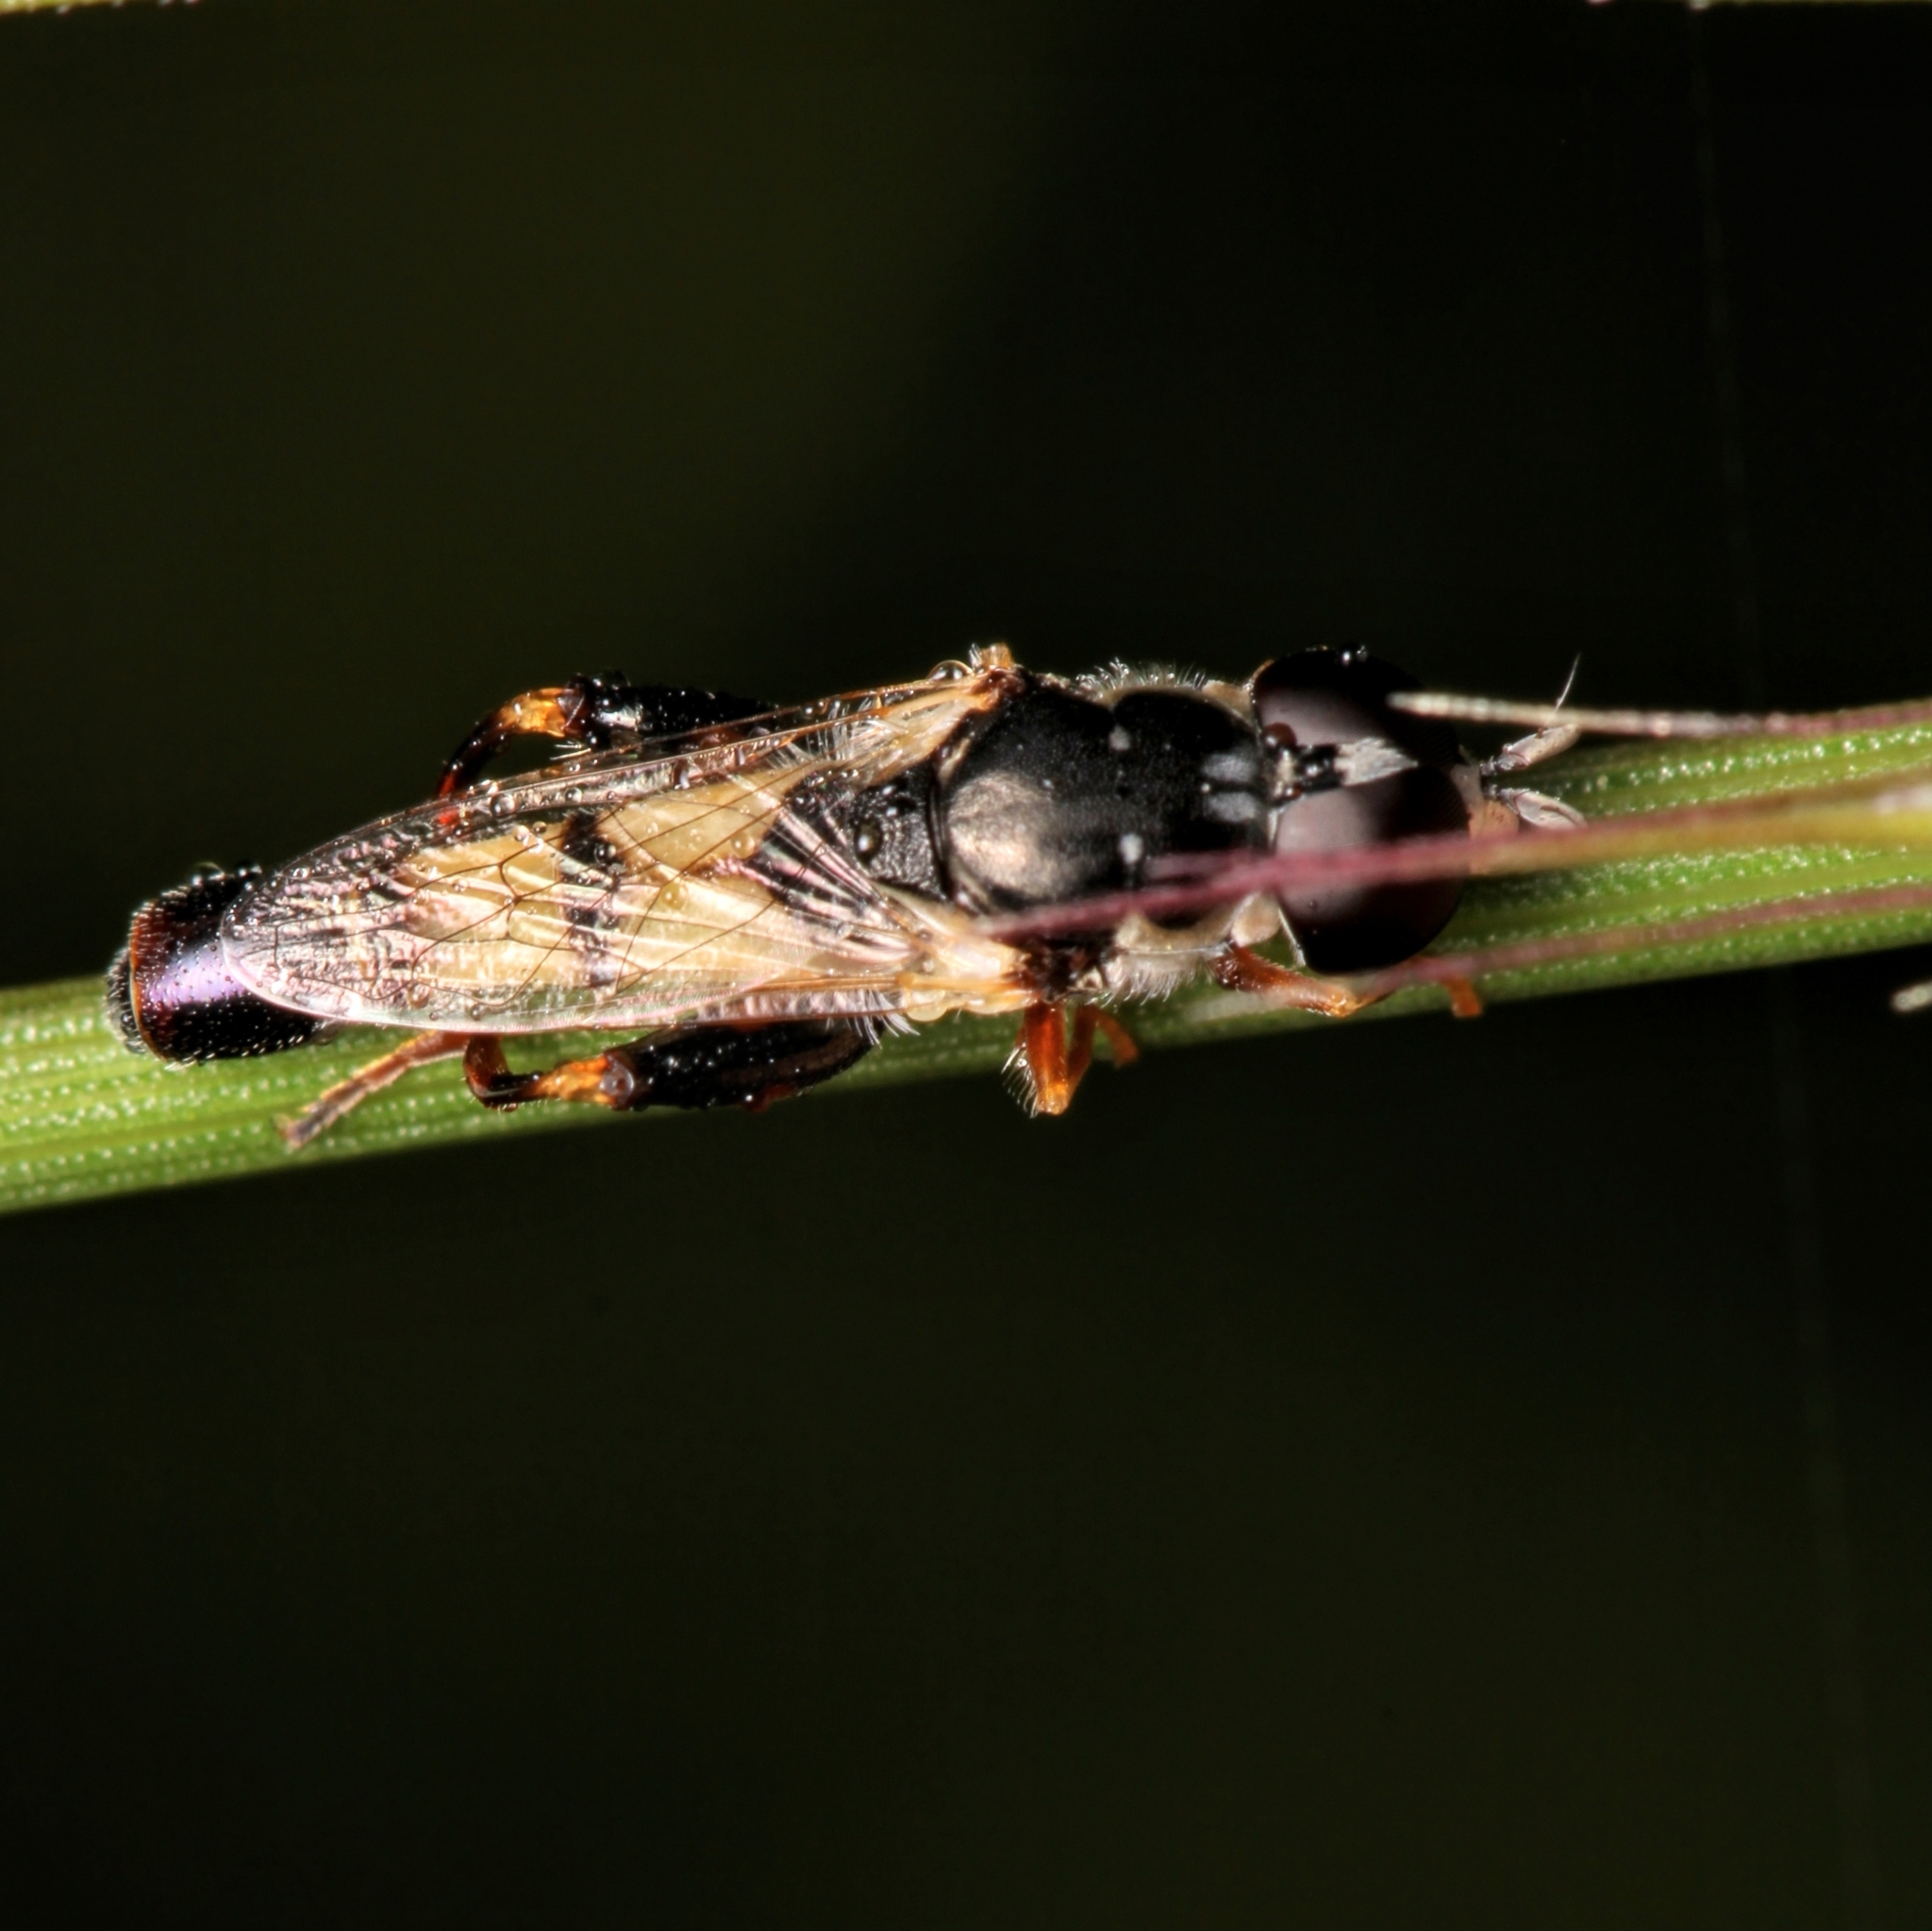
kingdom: Animalia
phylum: Arthropoda
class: Insecta
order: Diptera
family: Syrphidae
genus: Syritta
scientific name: Syritta flaviventris
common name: Syrphid fly
